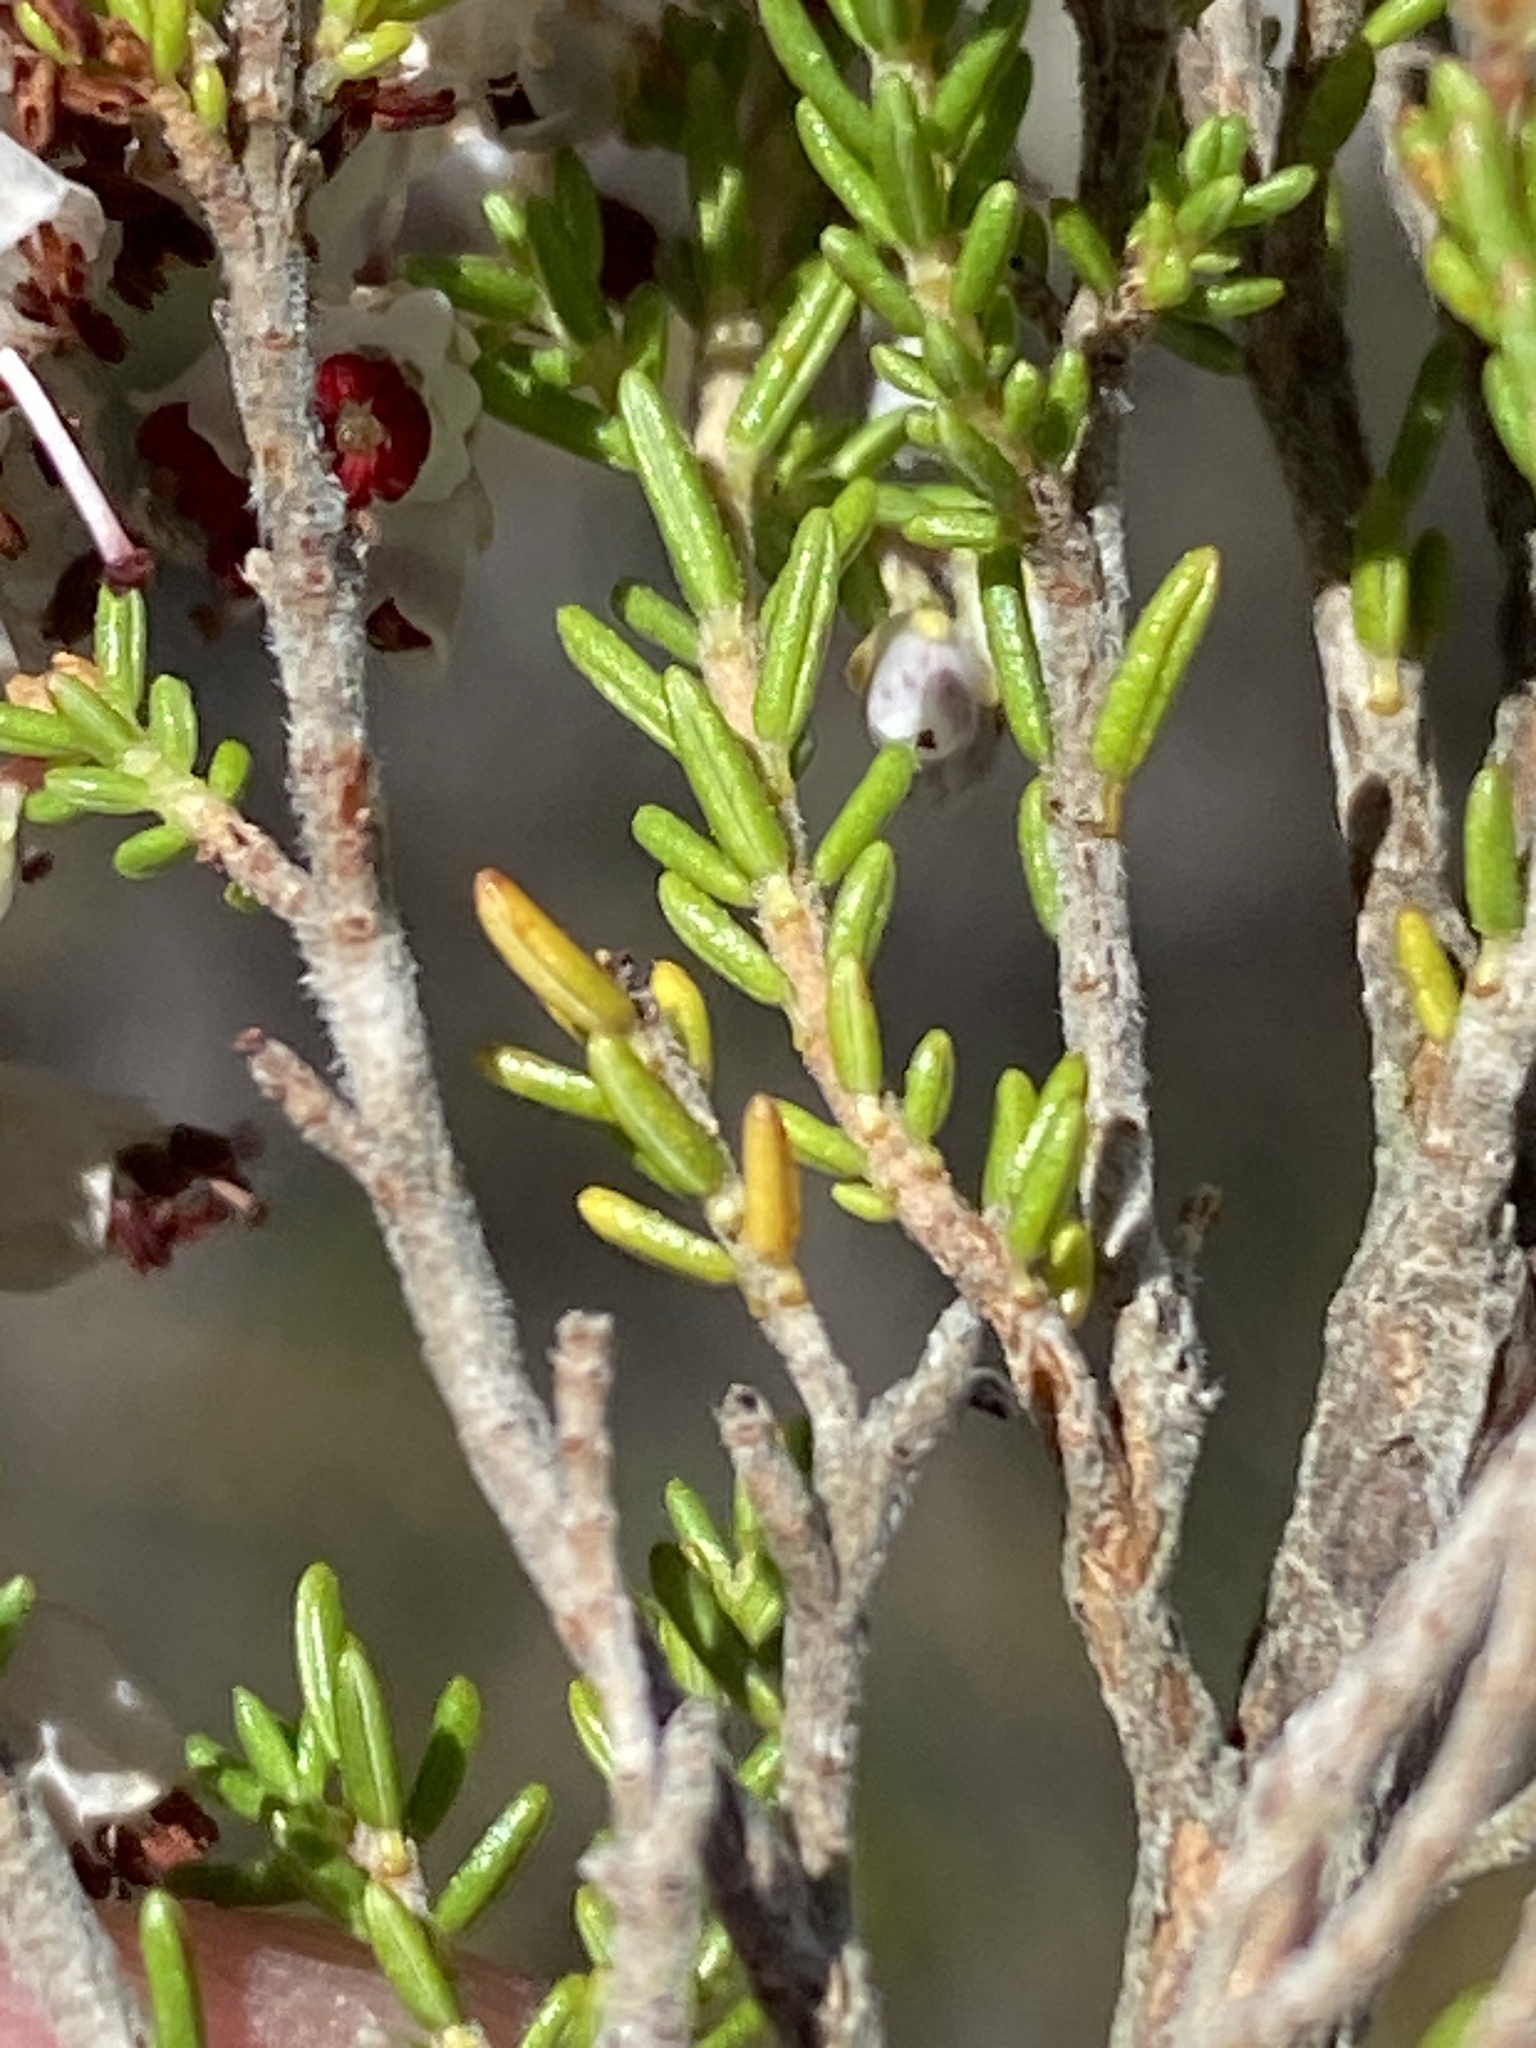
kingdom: Plantae
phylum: Tracheophyta
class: Magnoliopsida
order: Ericales
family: Ericaceae
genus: Erica
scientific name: Erica opulenta
